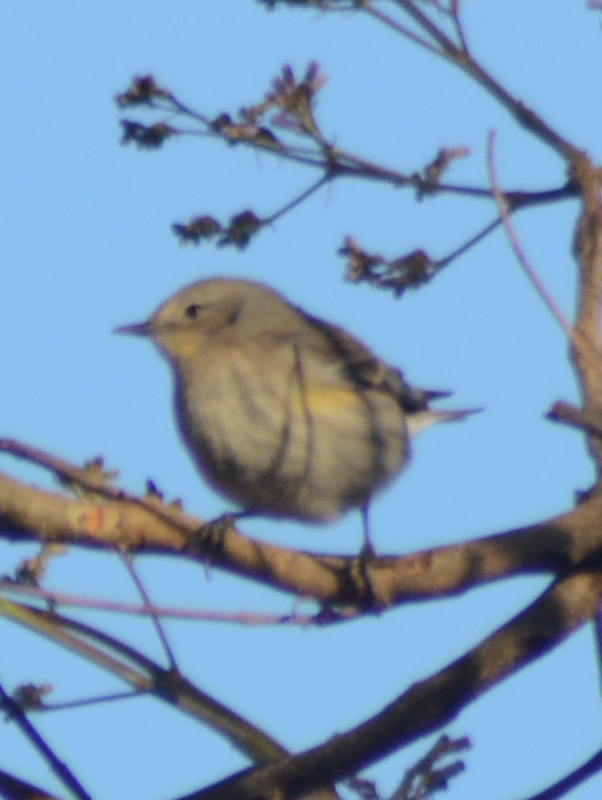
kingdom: Animalia
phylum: Chordata
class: Aves
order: Passeriformes
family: Parulidae
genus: Setophaga
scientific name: Setophaga coronata
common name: Myrtle warbler
